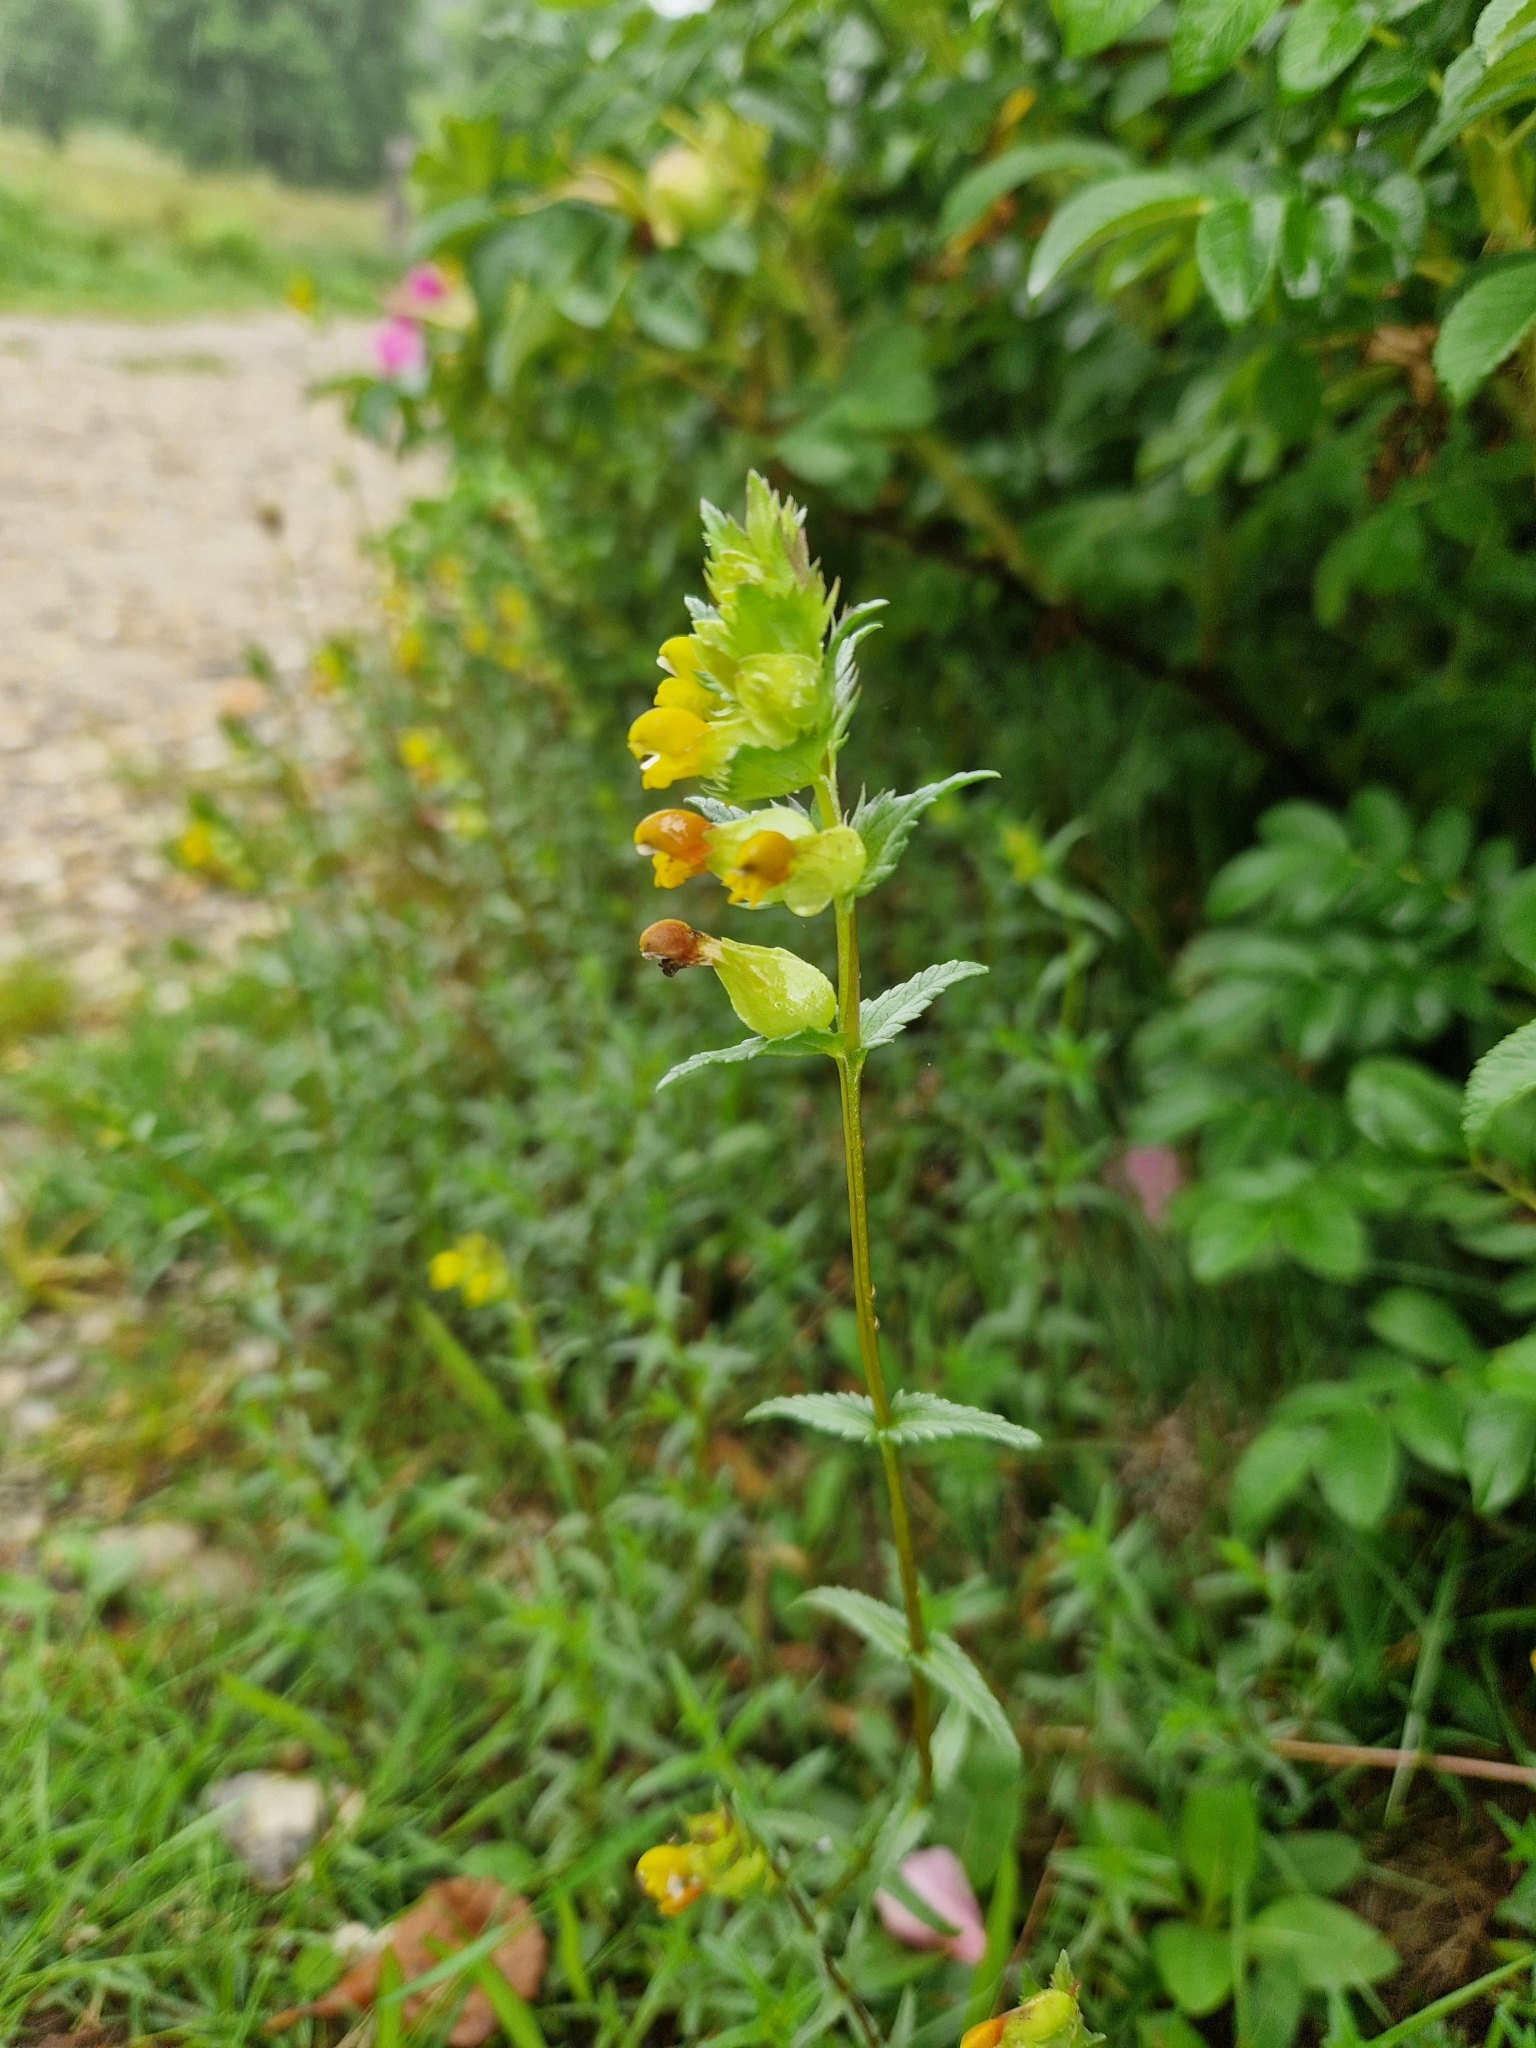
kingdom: Plantae
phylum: Tracheophyta
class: Magnoliopsida
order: Lamiales
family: Orobanchaceae
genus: Rhinanthus
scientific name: Rhinanthus minor
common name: Yellow-rattle
